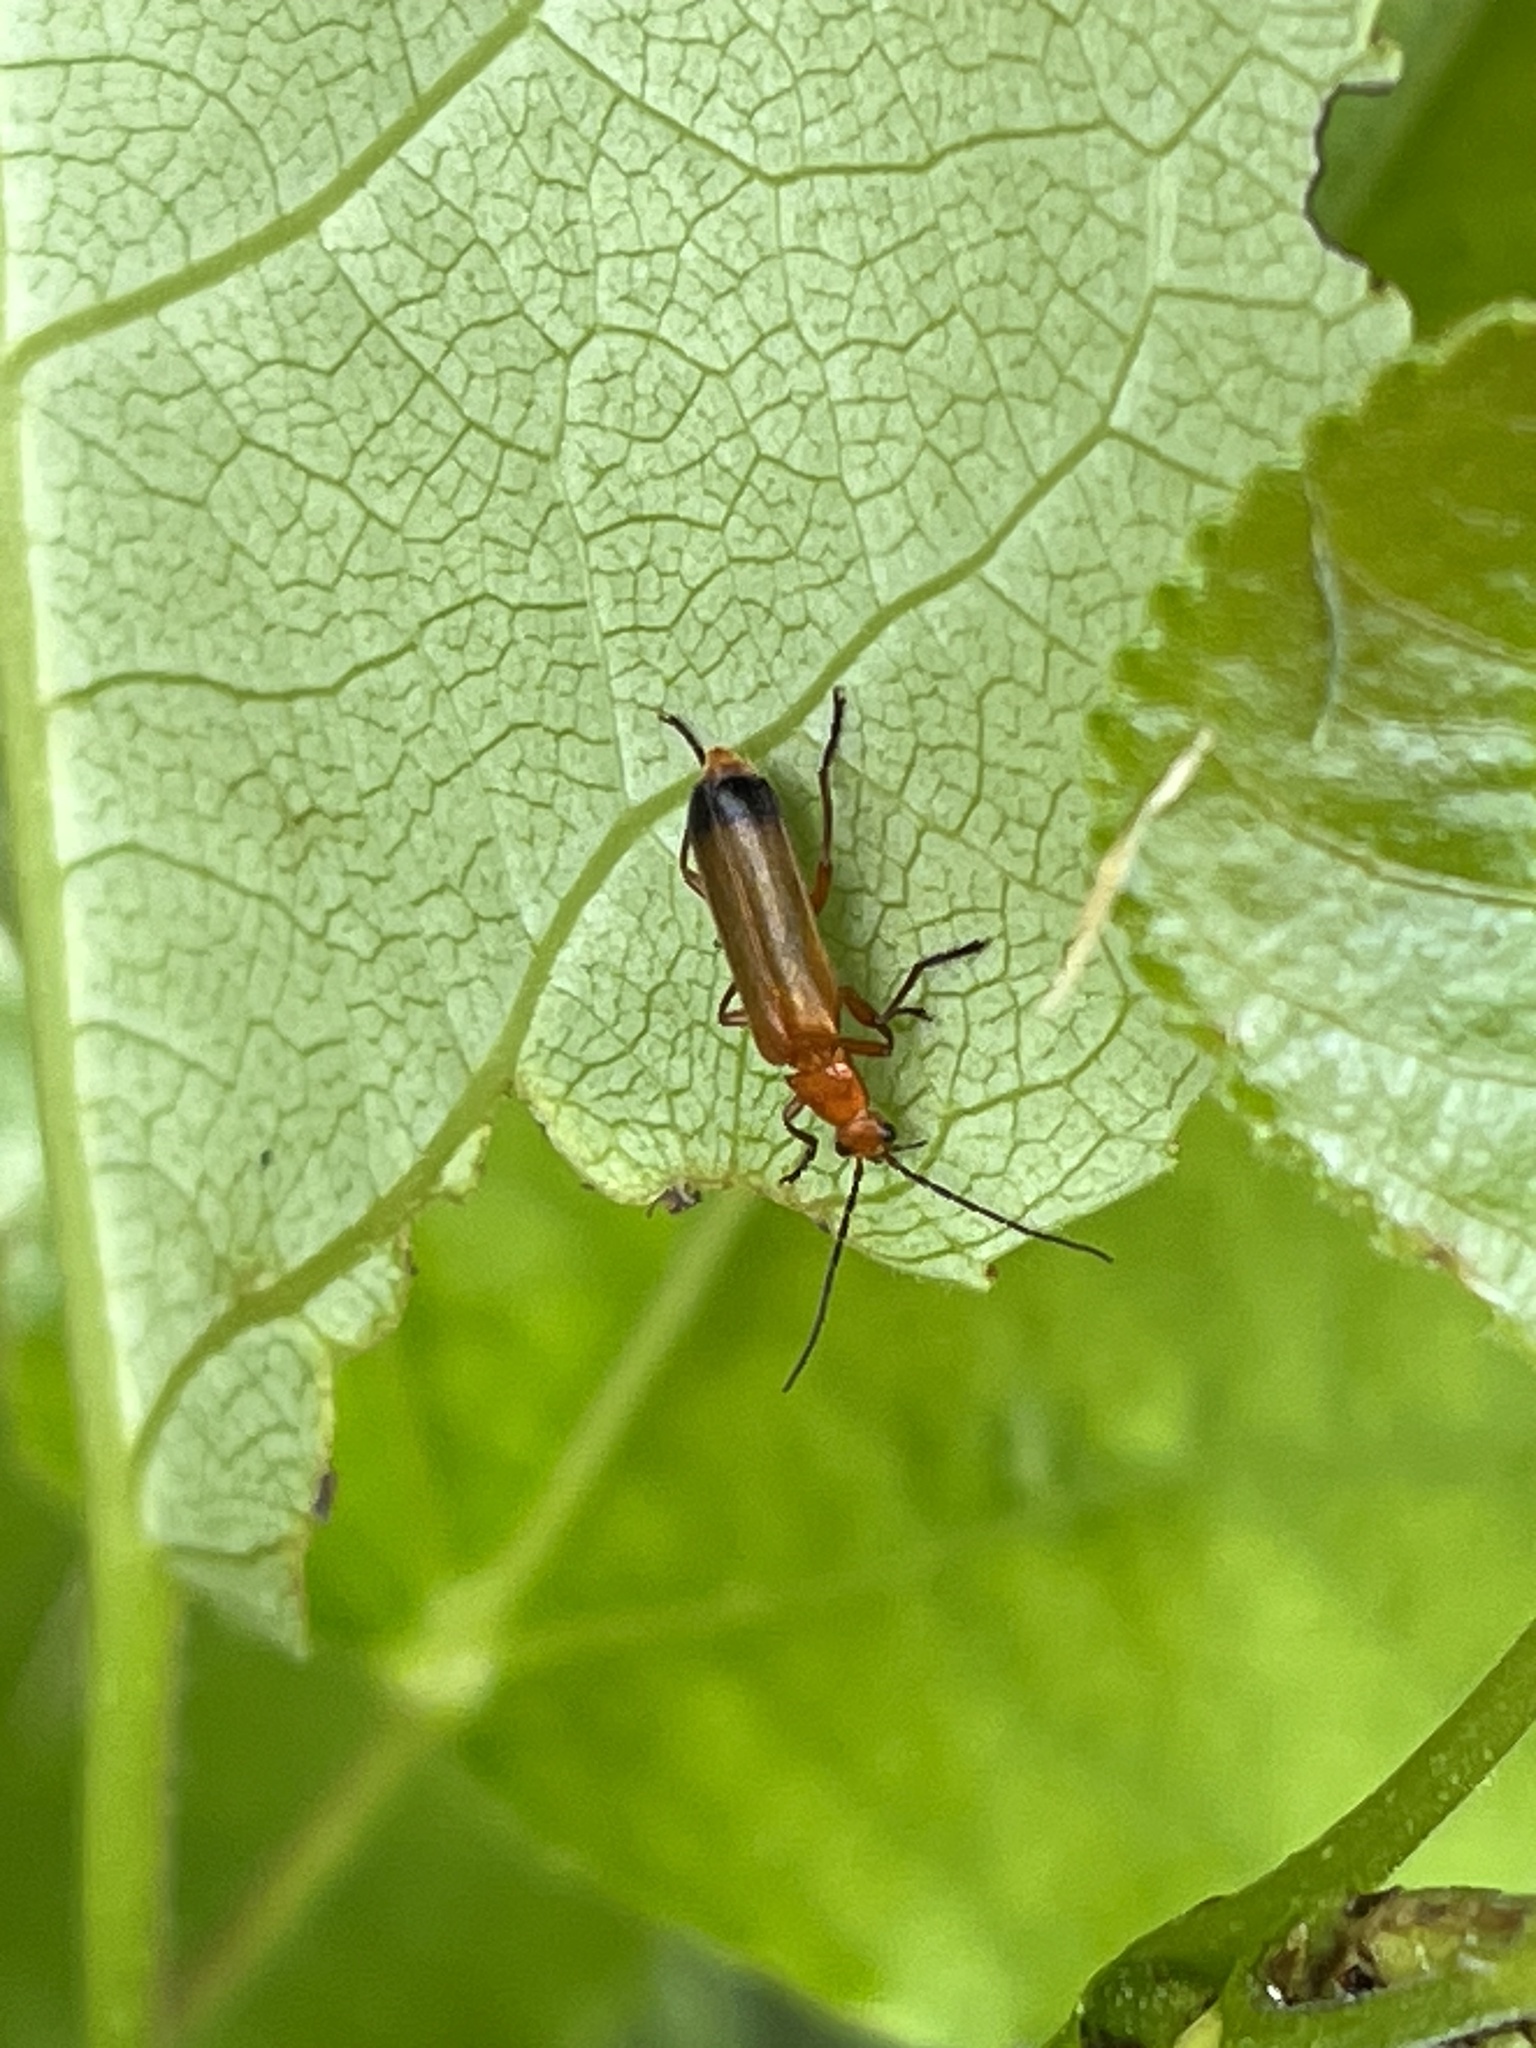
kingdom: Animalia
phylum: Arthropoda
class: Insecta
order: Coleoptera
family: Cantharidae
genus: Rhagonycha
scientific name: Rhagonycha fulva
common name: Common red soldier beetle
